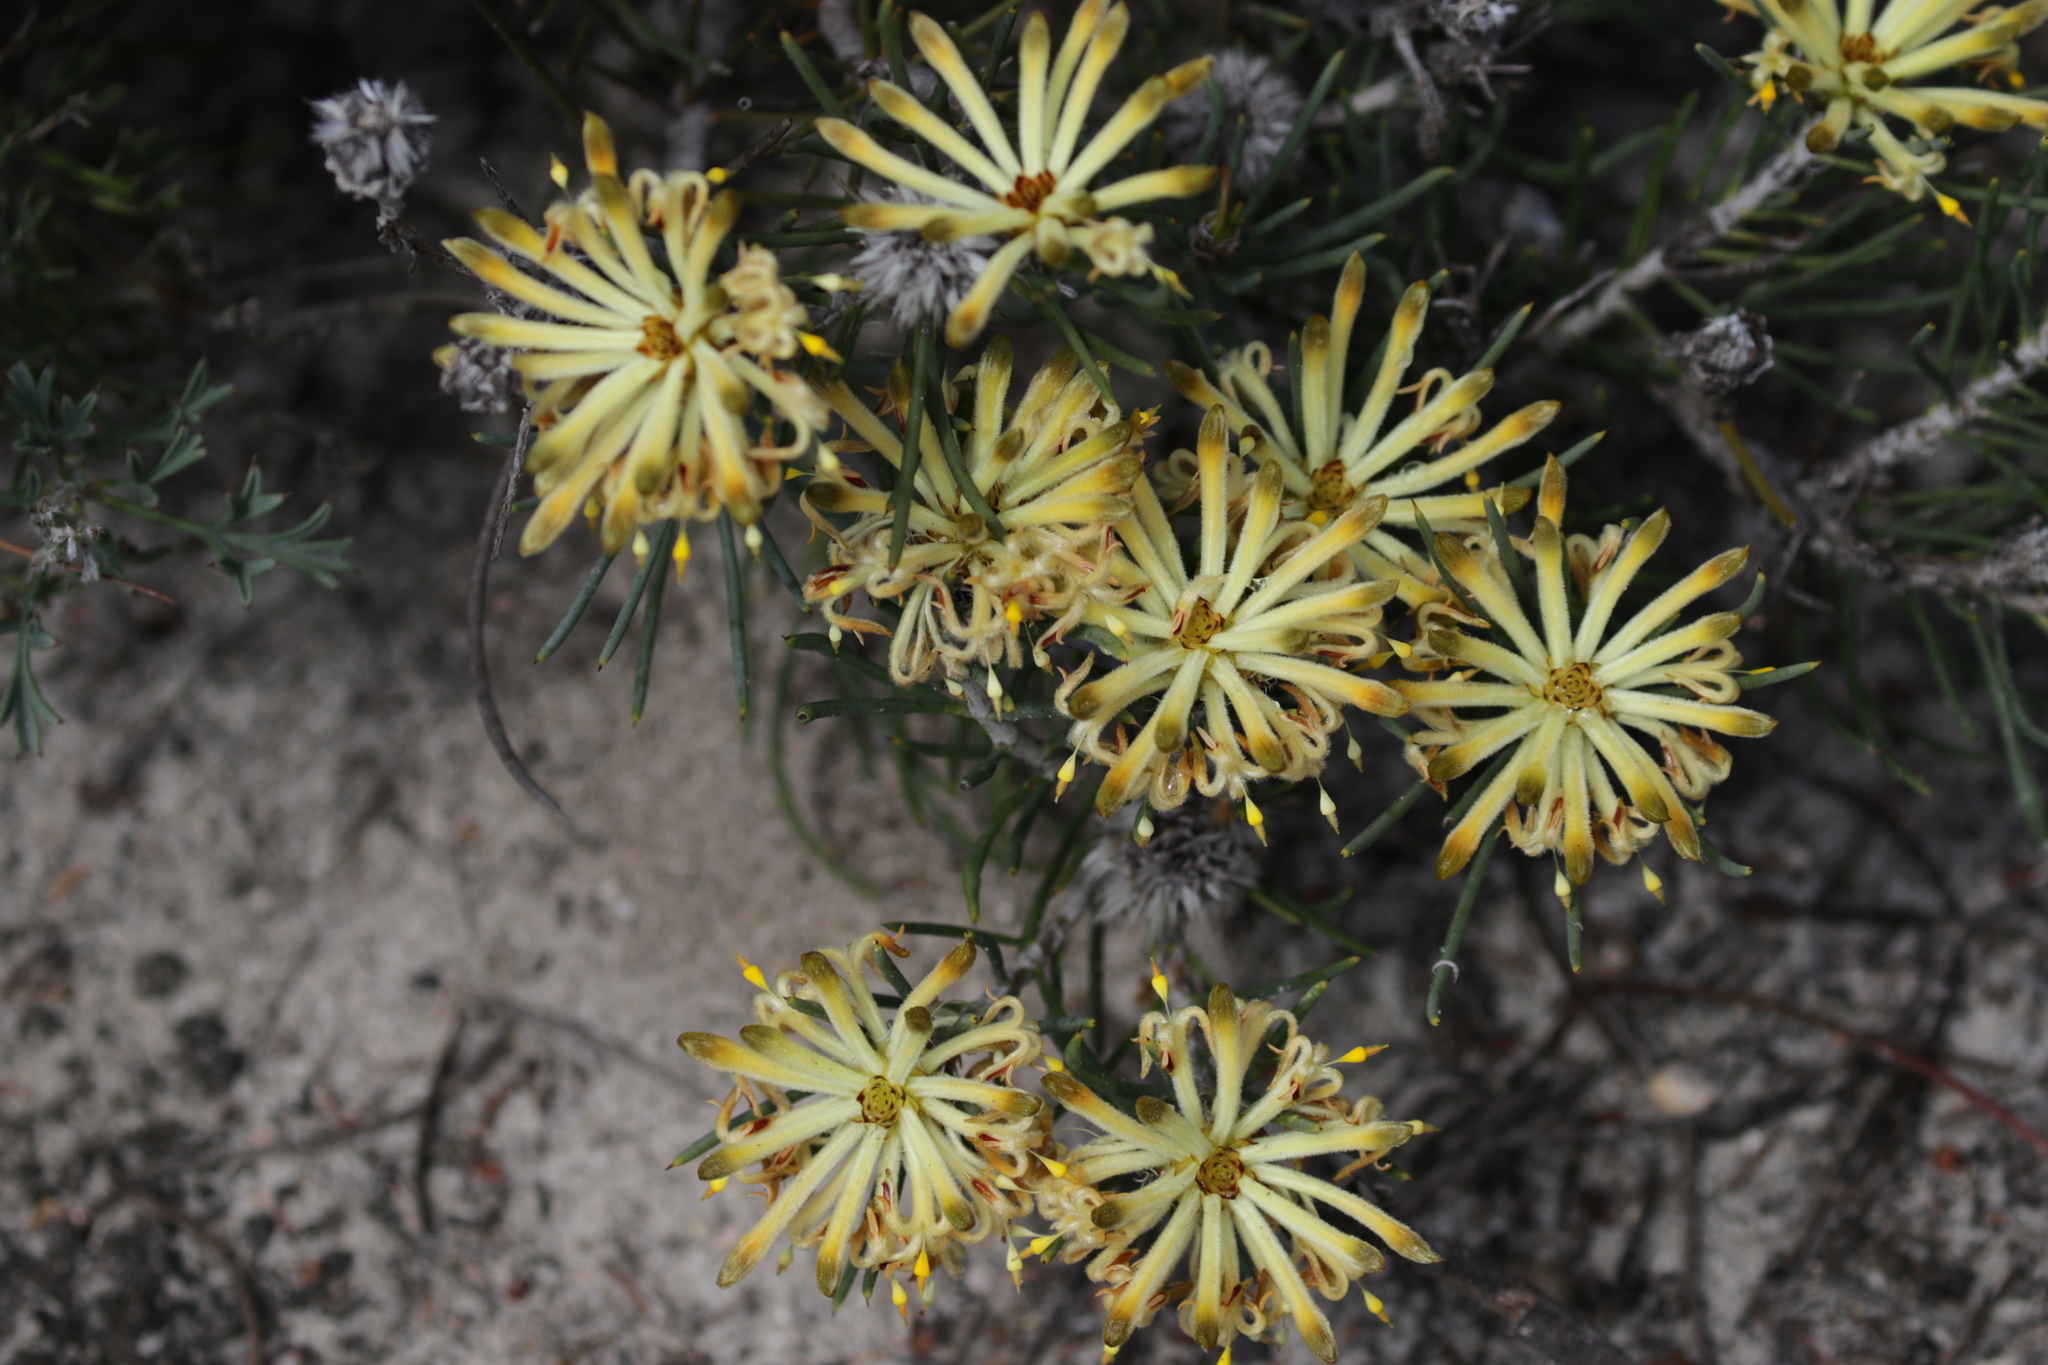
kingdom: Plantae
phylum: Tracheophyta
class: Magnoliopsida
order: Proteales
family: Proteaceae
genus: Petrophile
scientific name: Petrophile brevifolia
